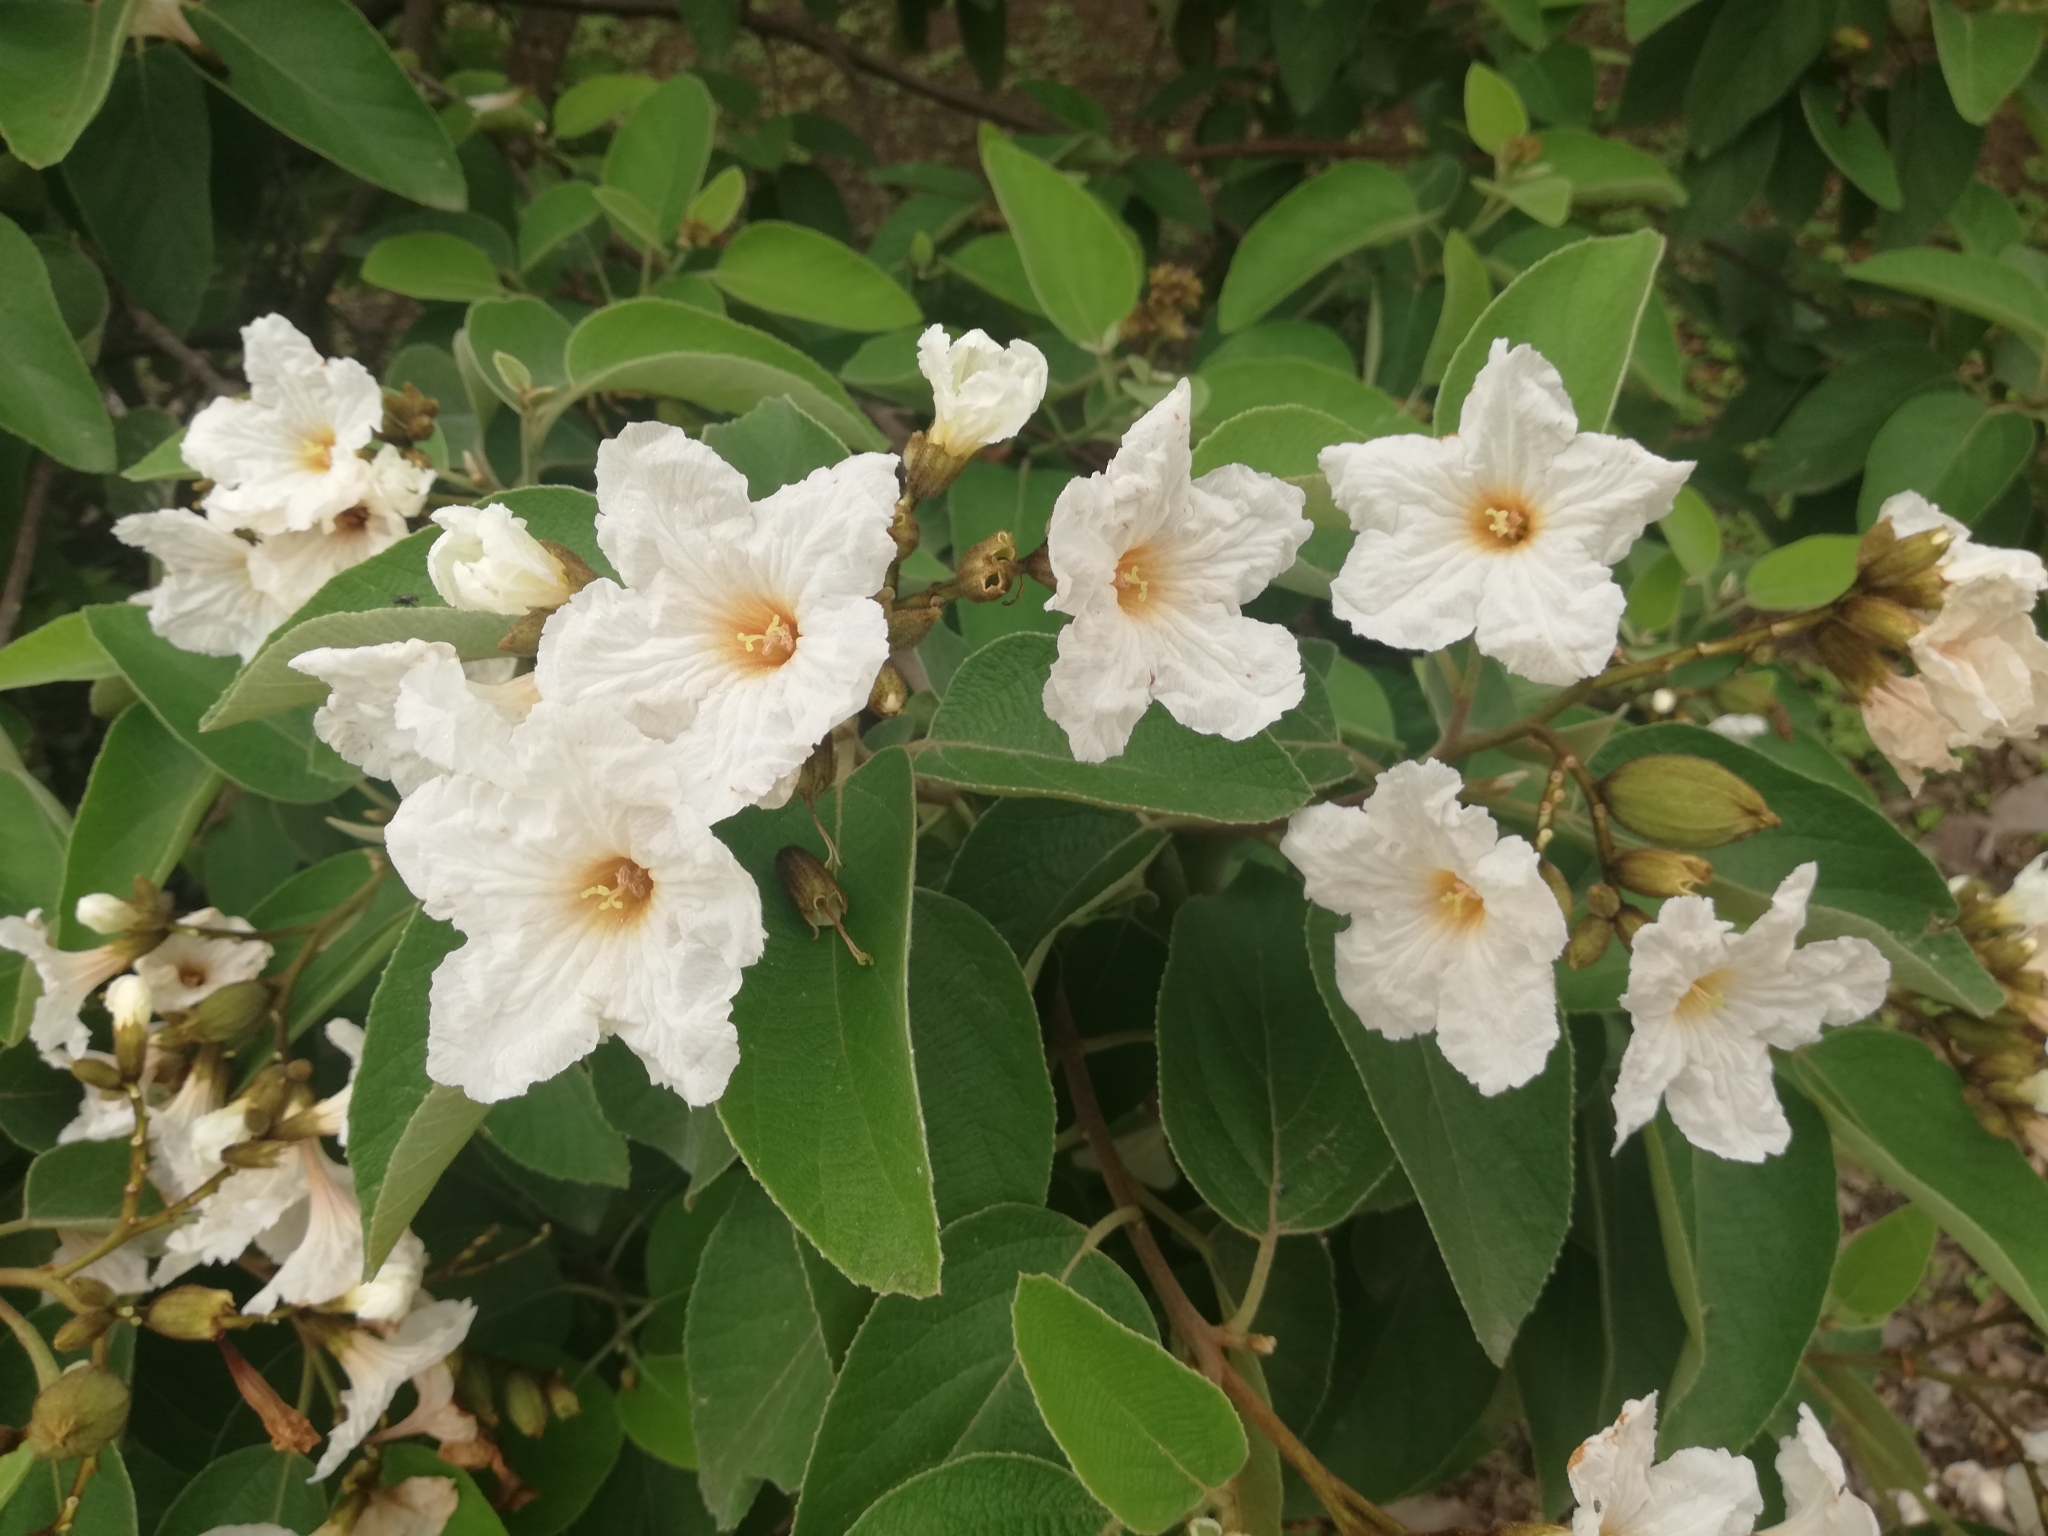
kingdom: Plantae
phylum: Tracheophyta
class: Magnoliopsida
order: Boraginales
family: Cordiaceae
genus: Cordia
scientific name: Cordia boissieri
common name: Mexican-olive
